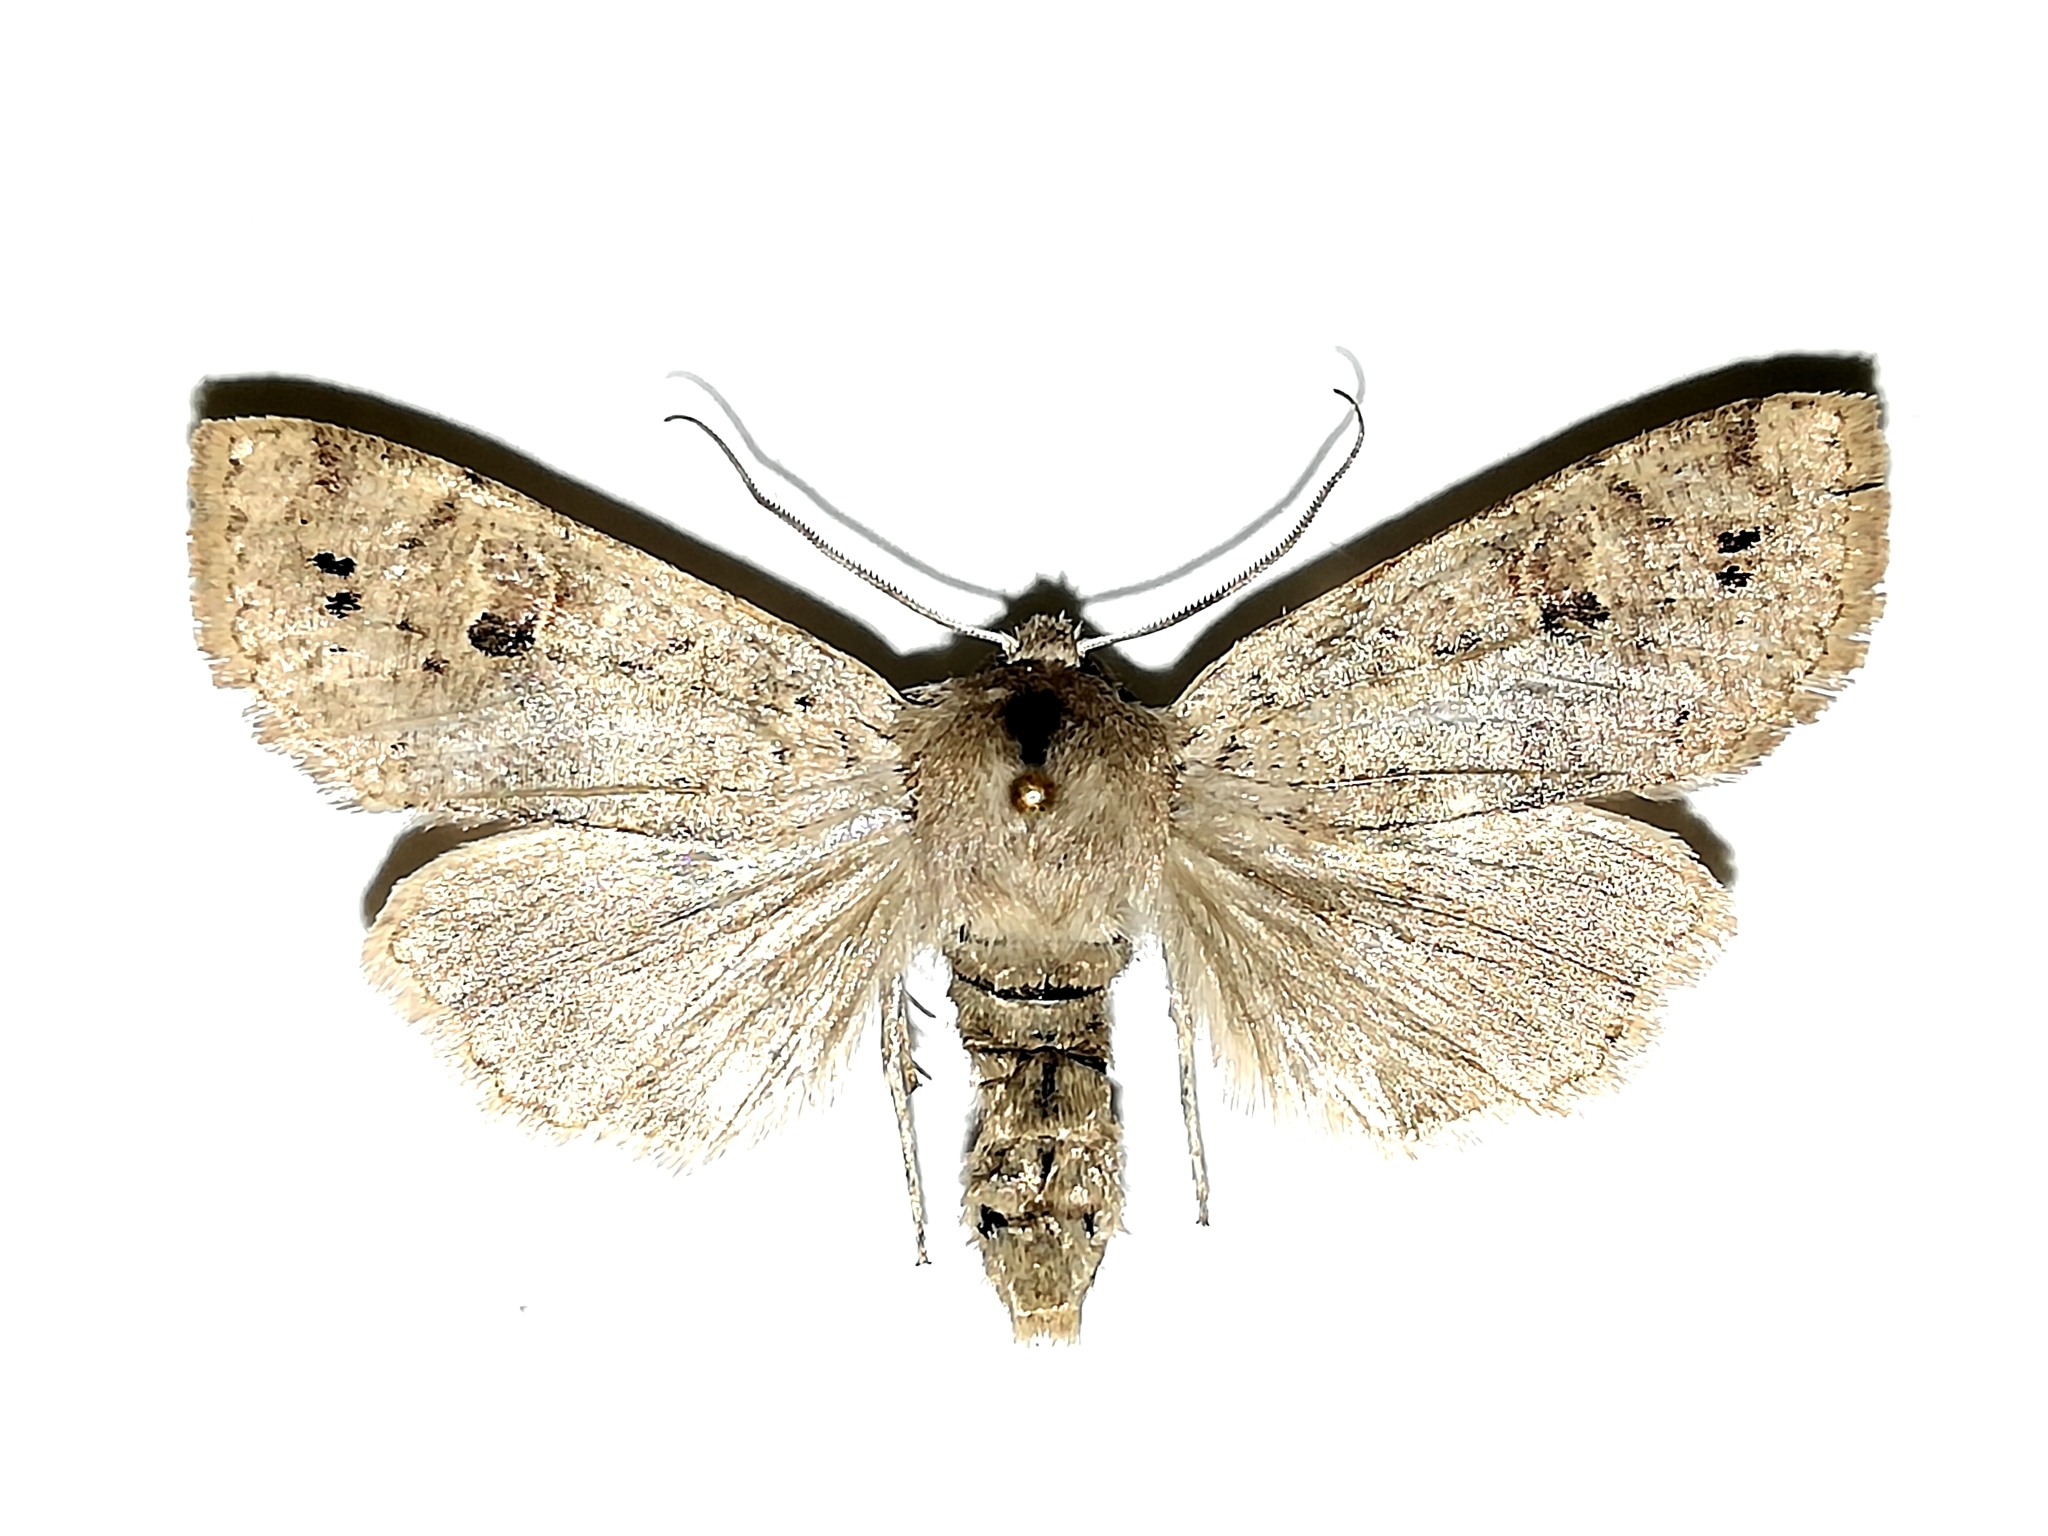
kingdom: Animalia
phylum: Arthropoda
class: Insecta
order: Lepidoptera
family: Noctuidae
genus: Anorthoa
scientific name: Anorthoa munda
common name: Twin-spotted quaker
